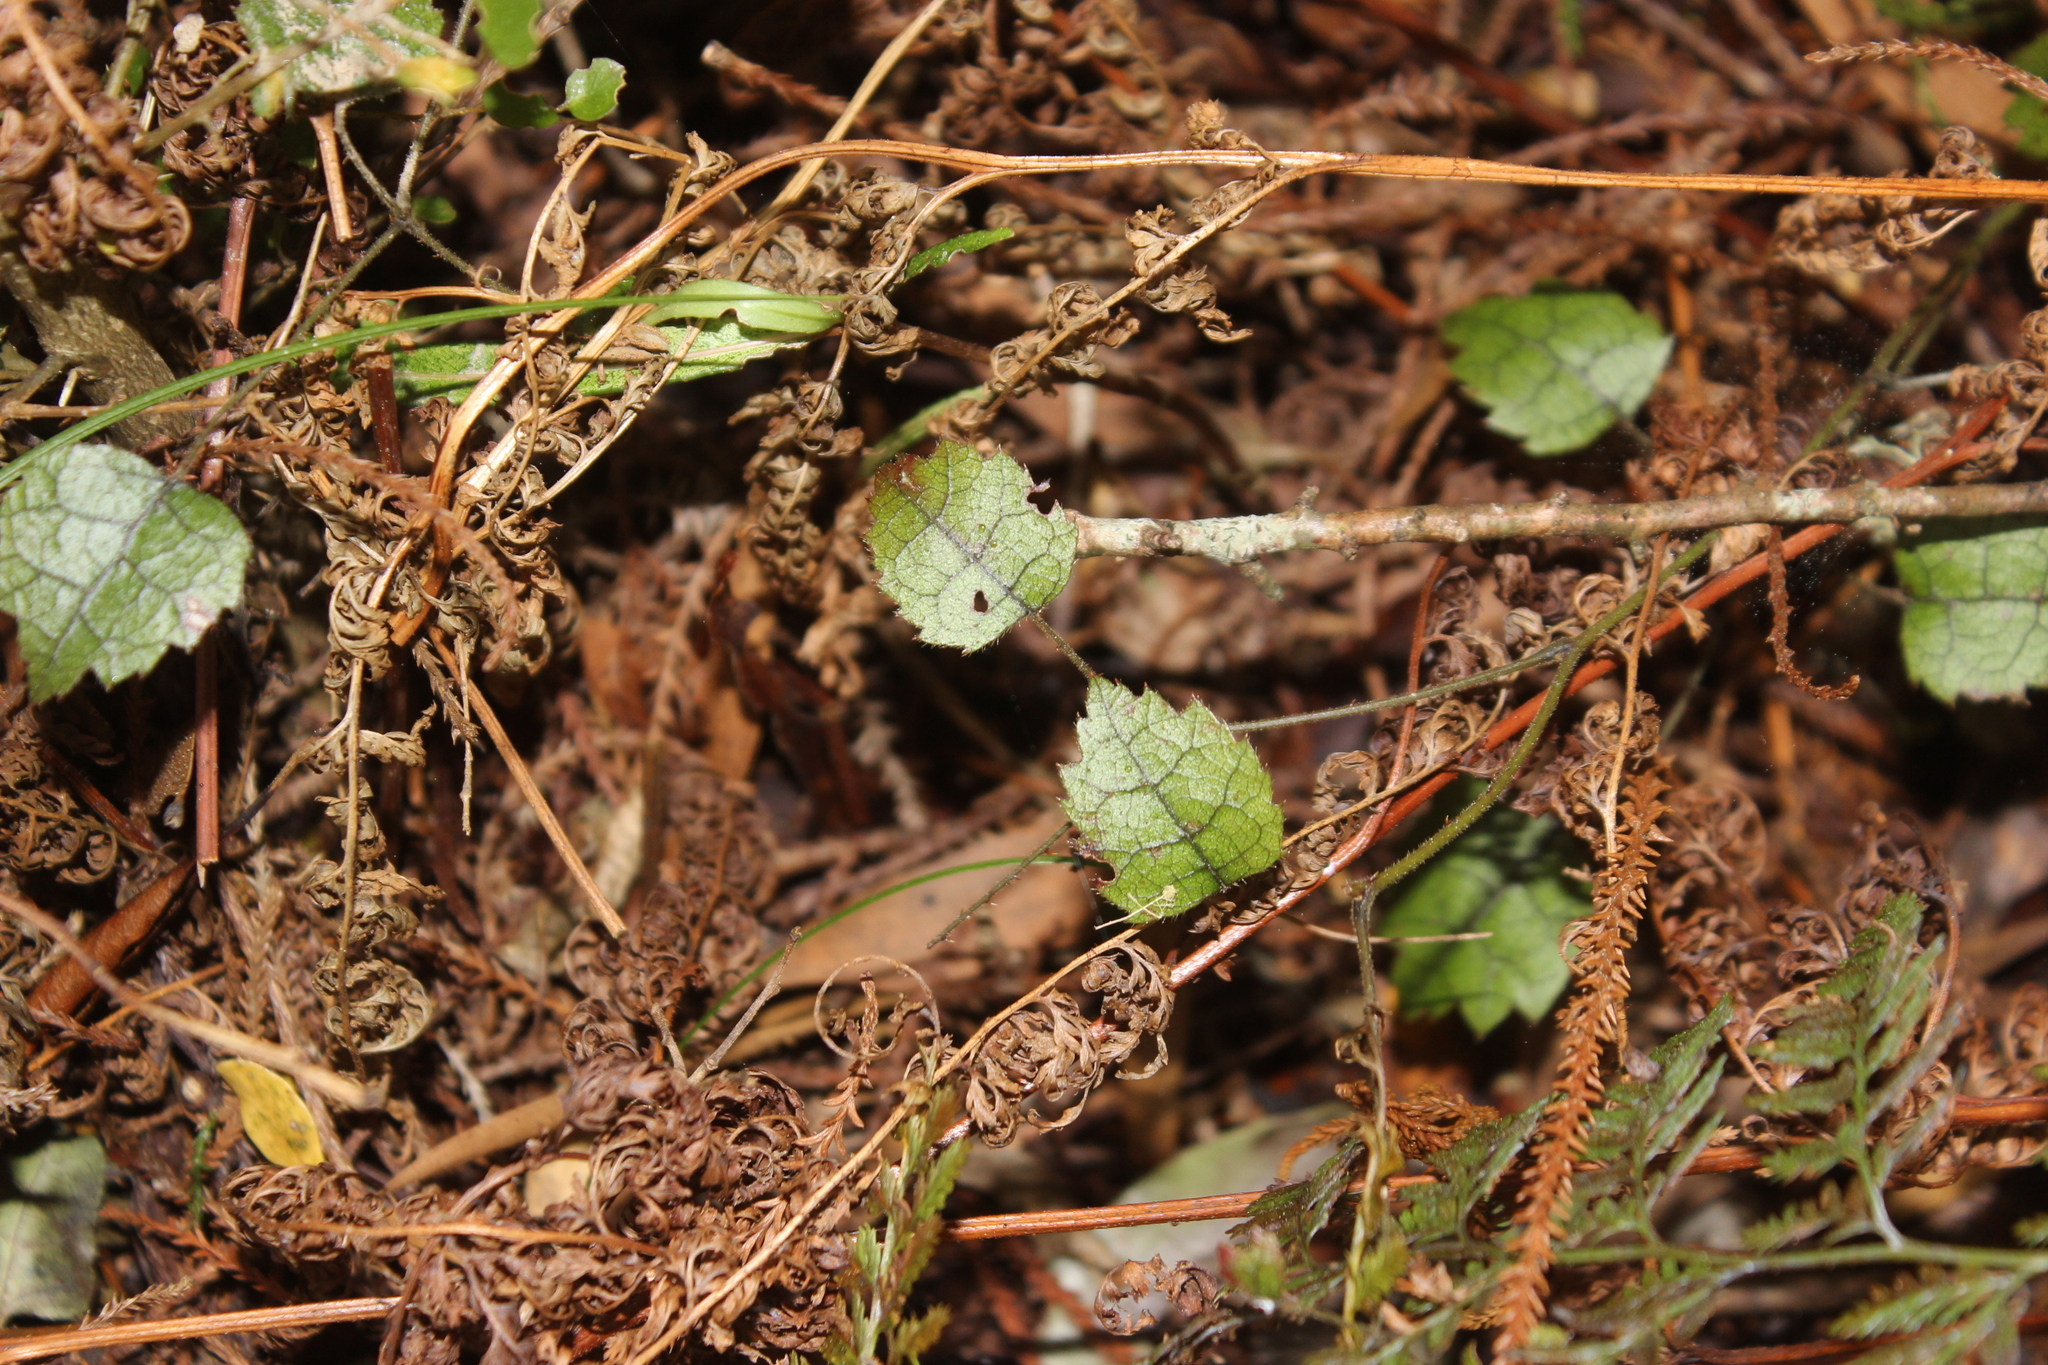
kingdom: Plantae
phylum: Tracheophyta
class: Magnoliopsida
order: Rosales
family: Rosaceae
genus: Rubus
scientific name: Rubus australis
